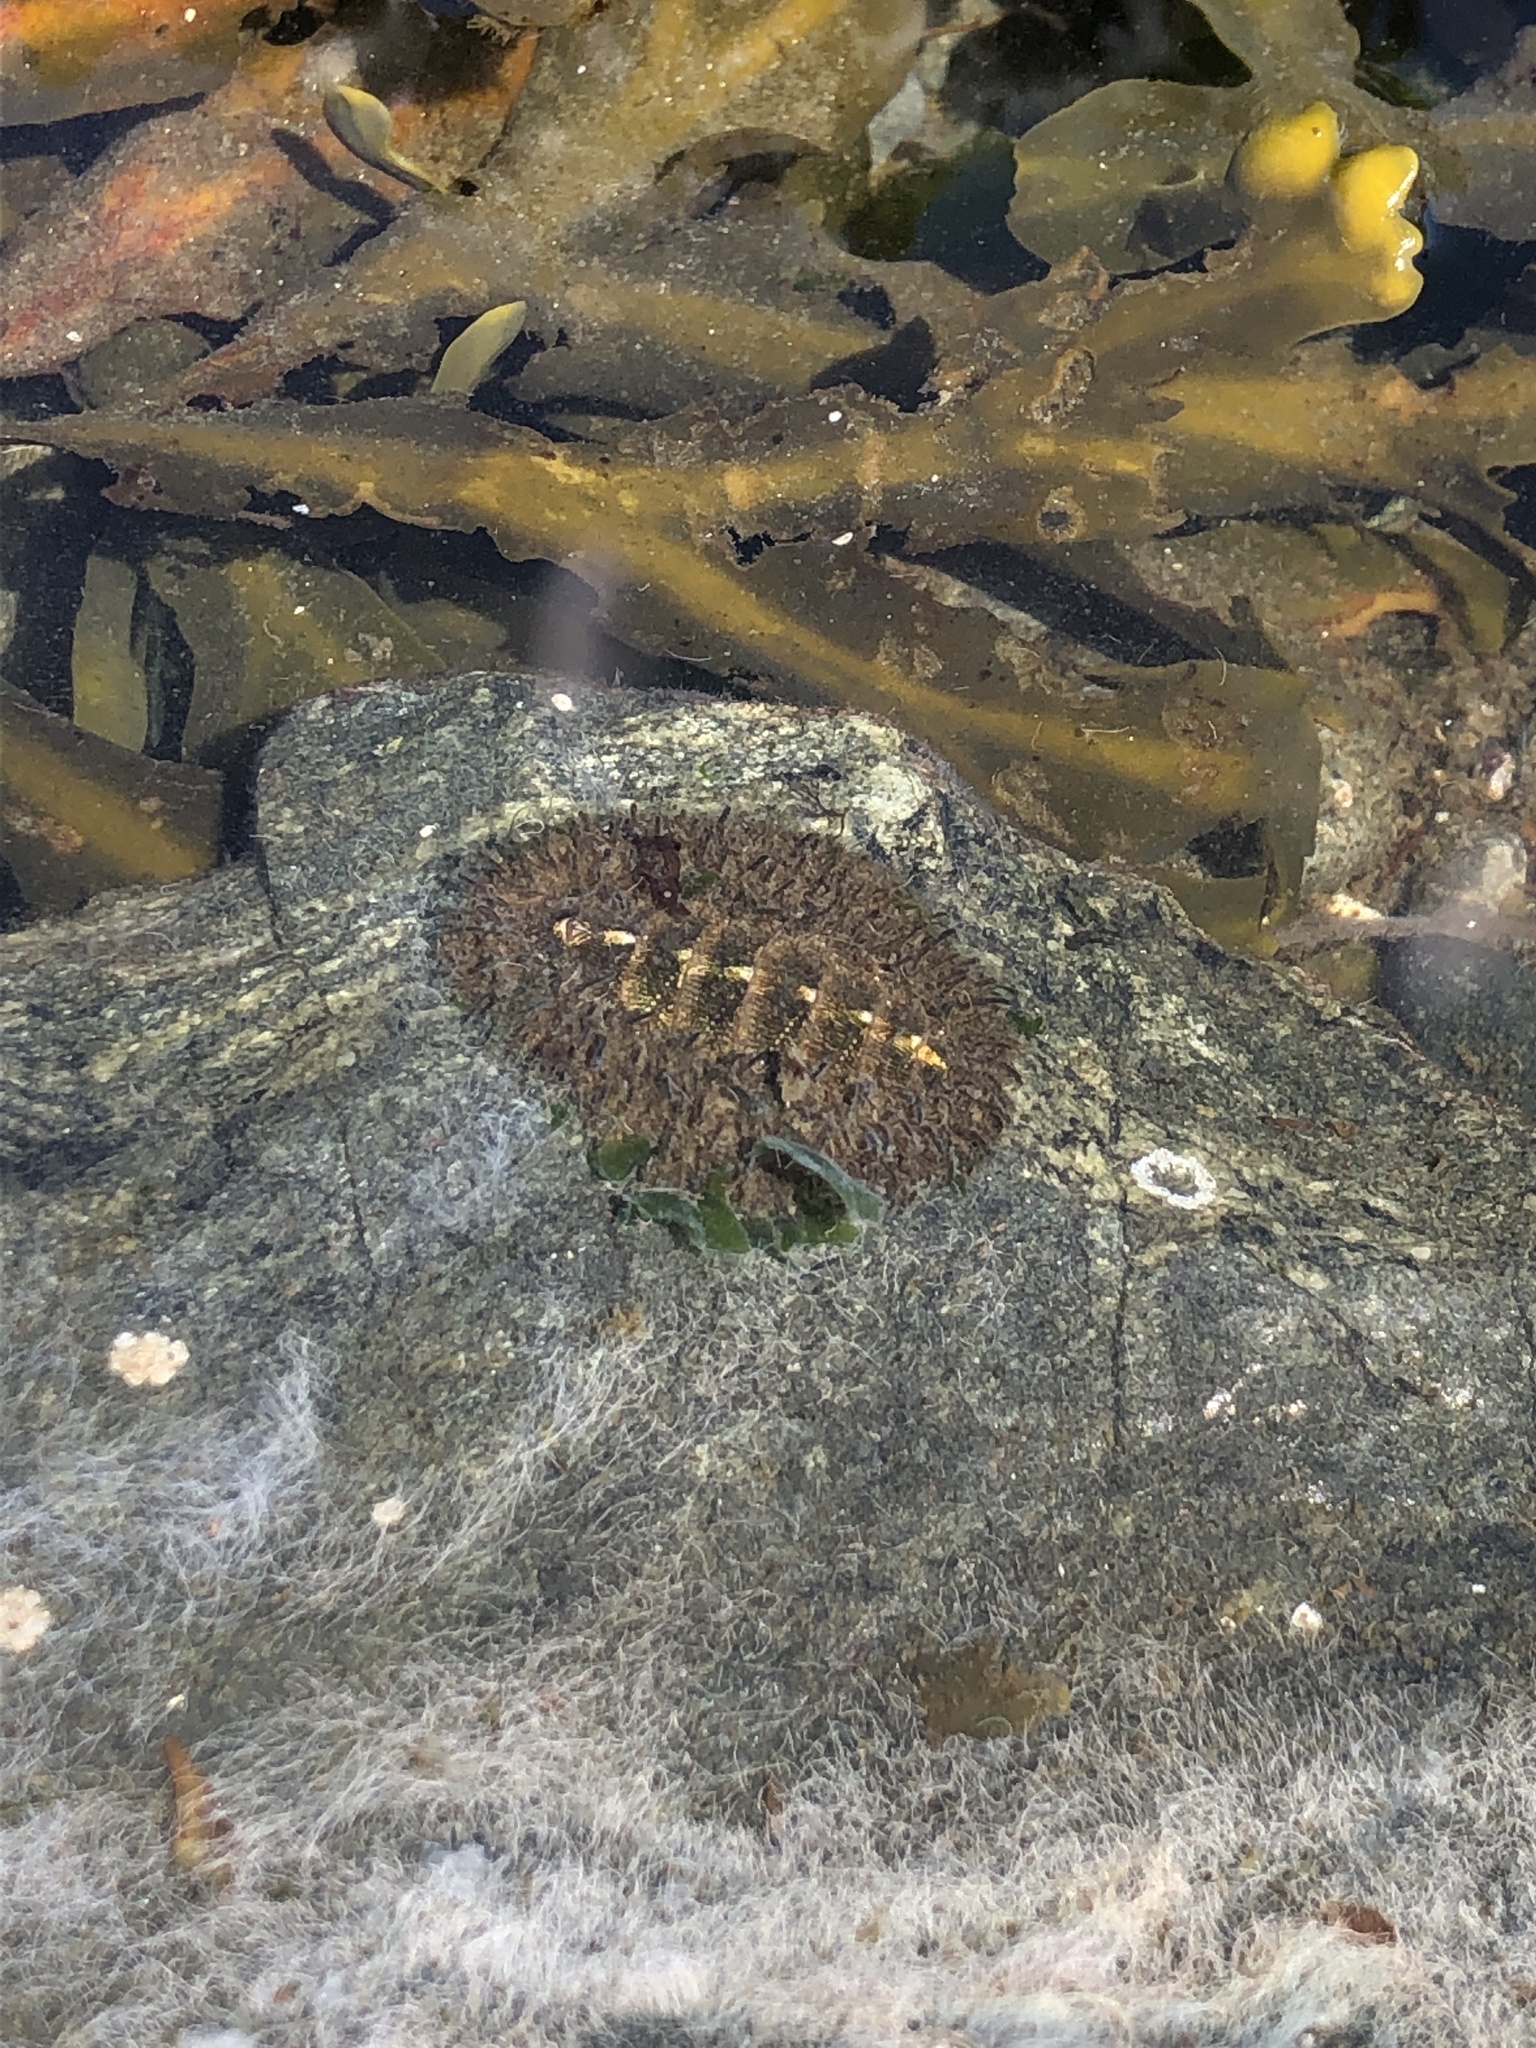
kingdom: Animalia
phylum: Mollusca
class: Polyplacophora
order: Chitonida
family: Mopaliidae
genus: Mopalia
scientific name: Mopalia muscosa
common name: Mossy chiton
